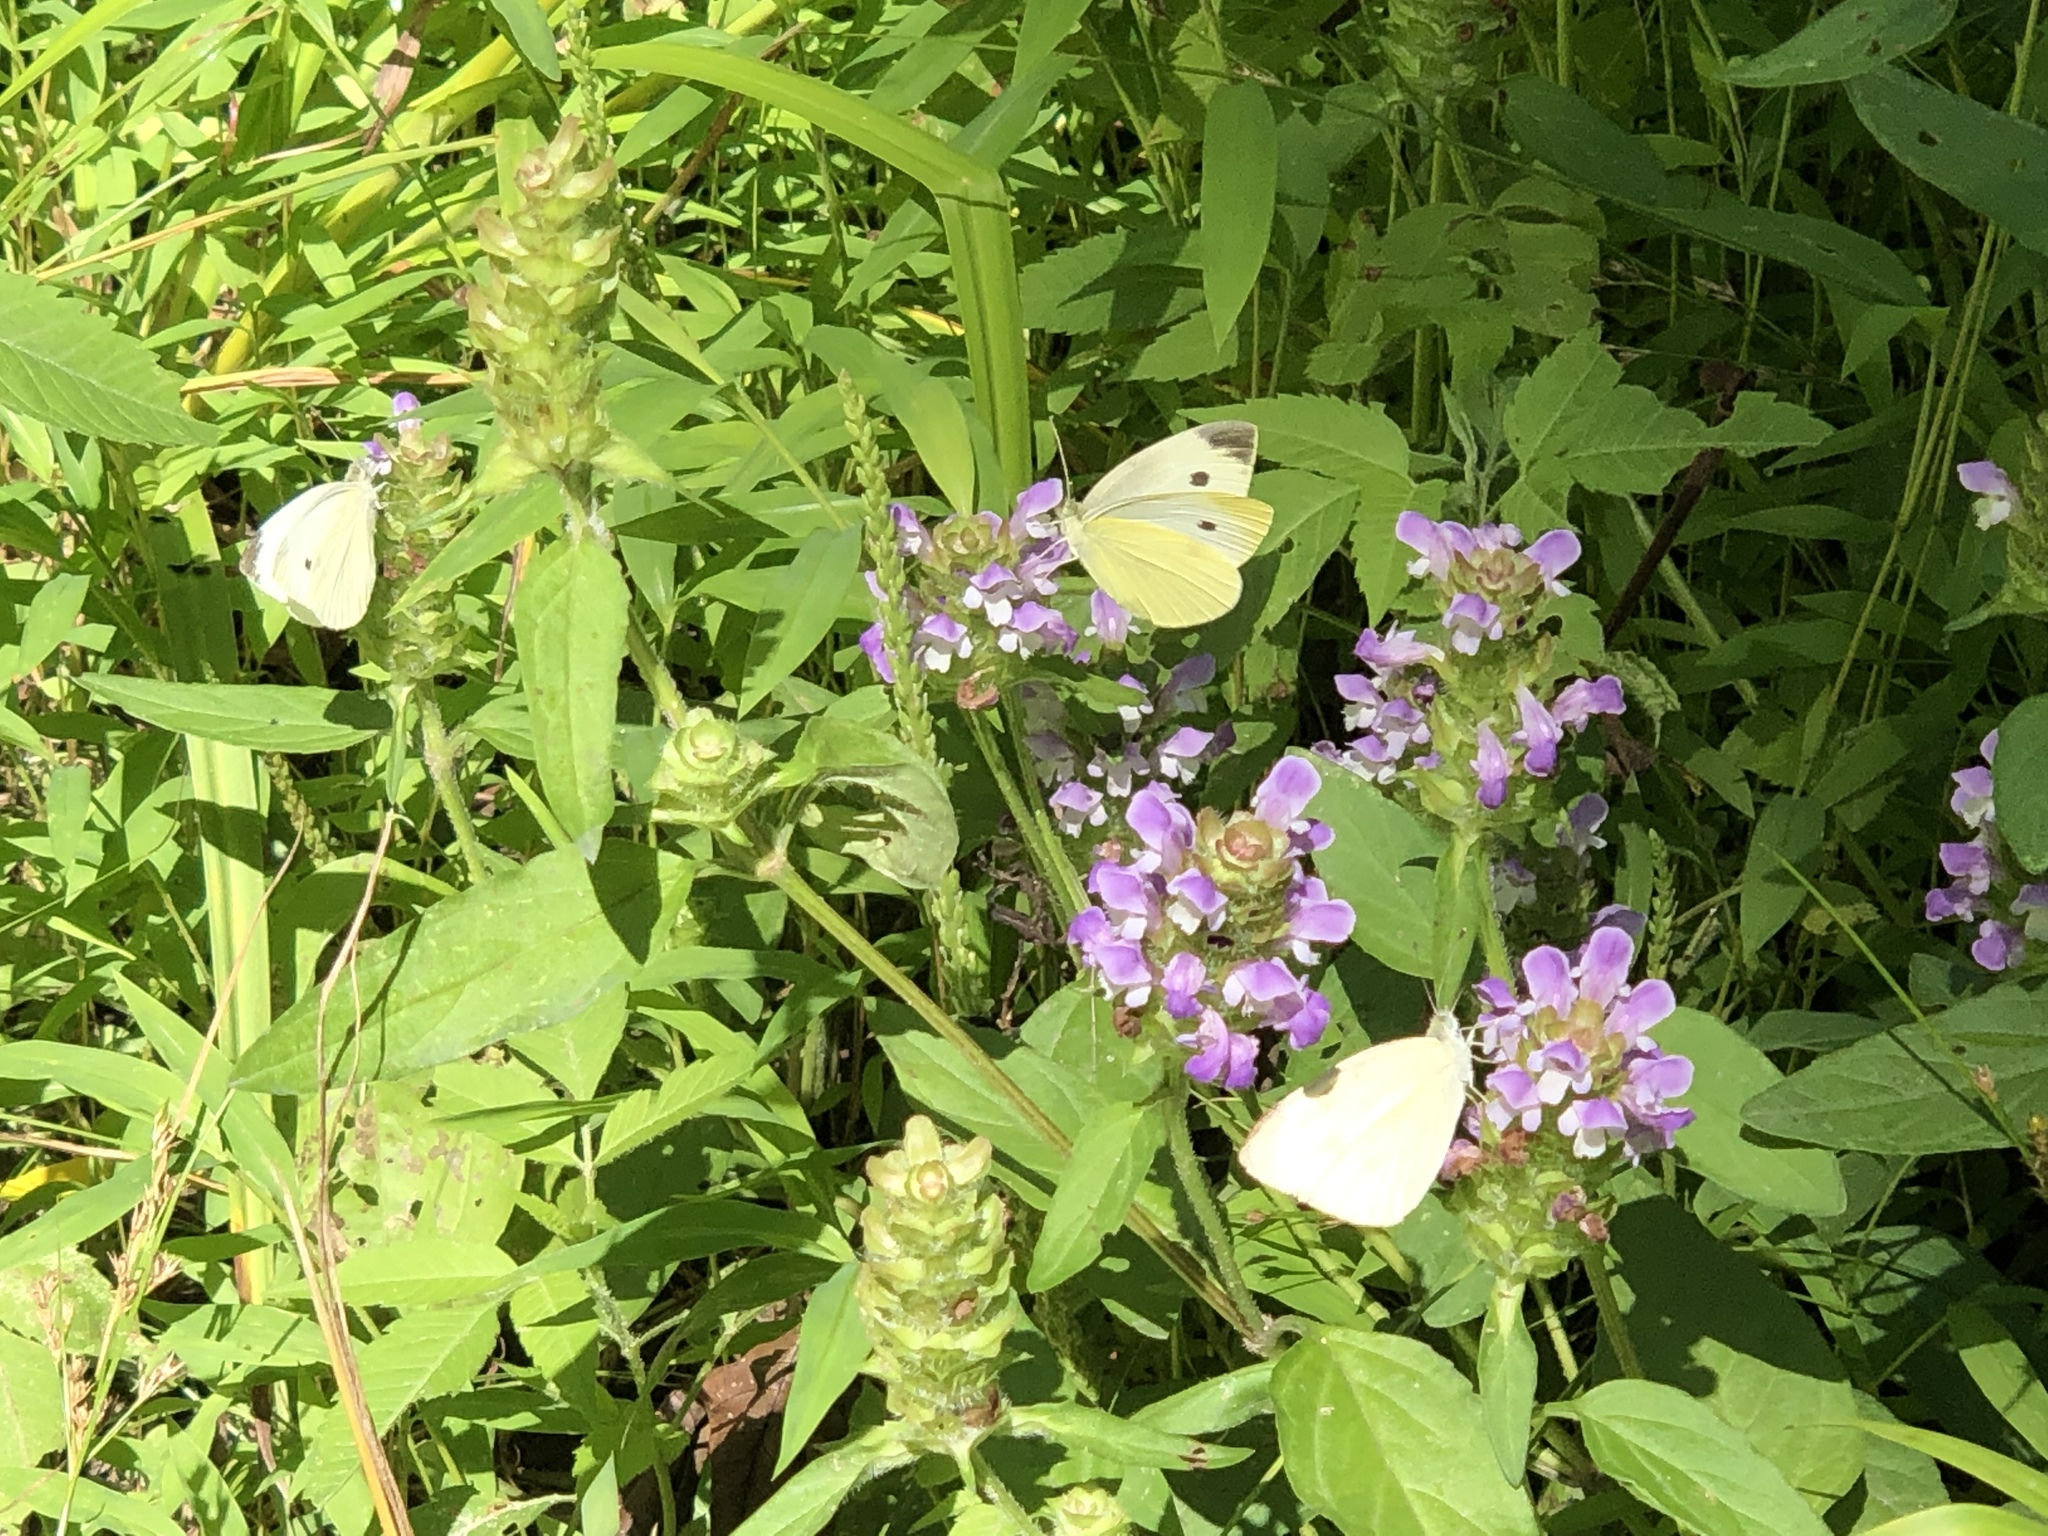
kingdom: Animalia
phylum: Arthropoda
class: Insecta
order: Lepidoptera
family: Pieridae
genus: Pieris
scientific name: Pieris rapae
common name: Small white
